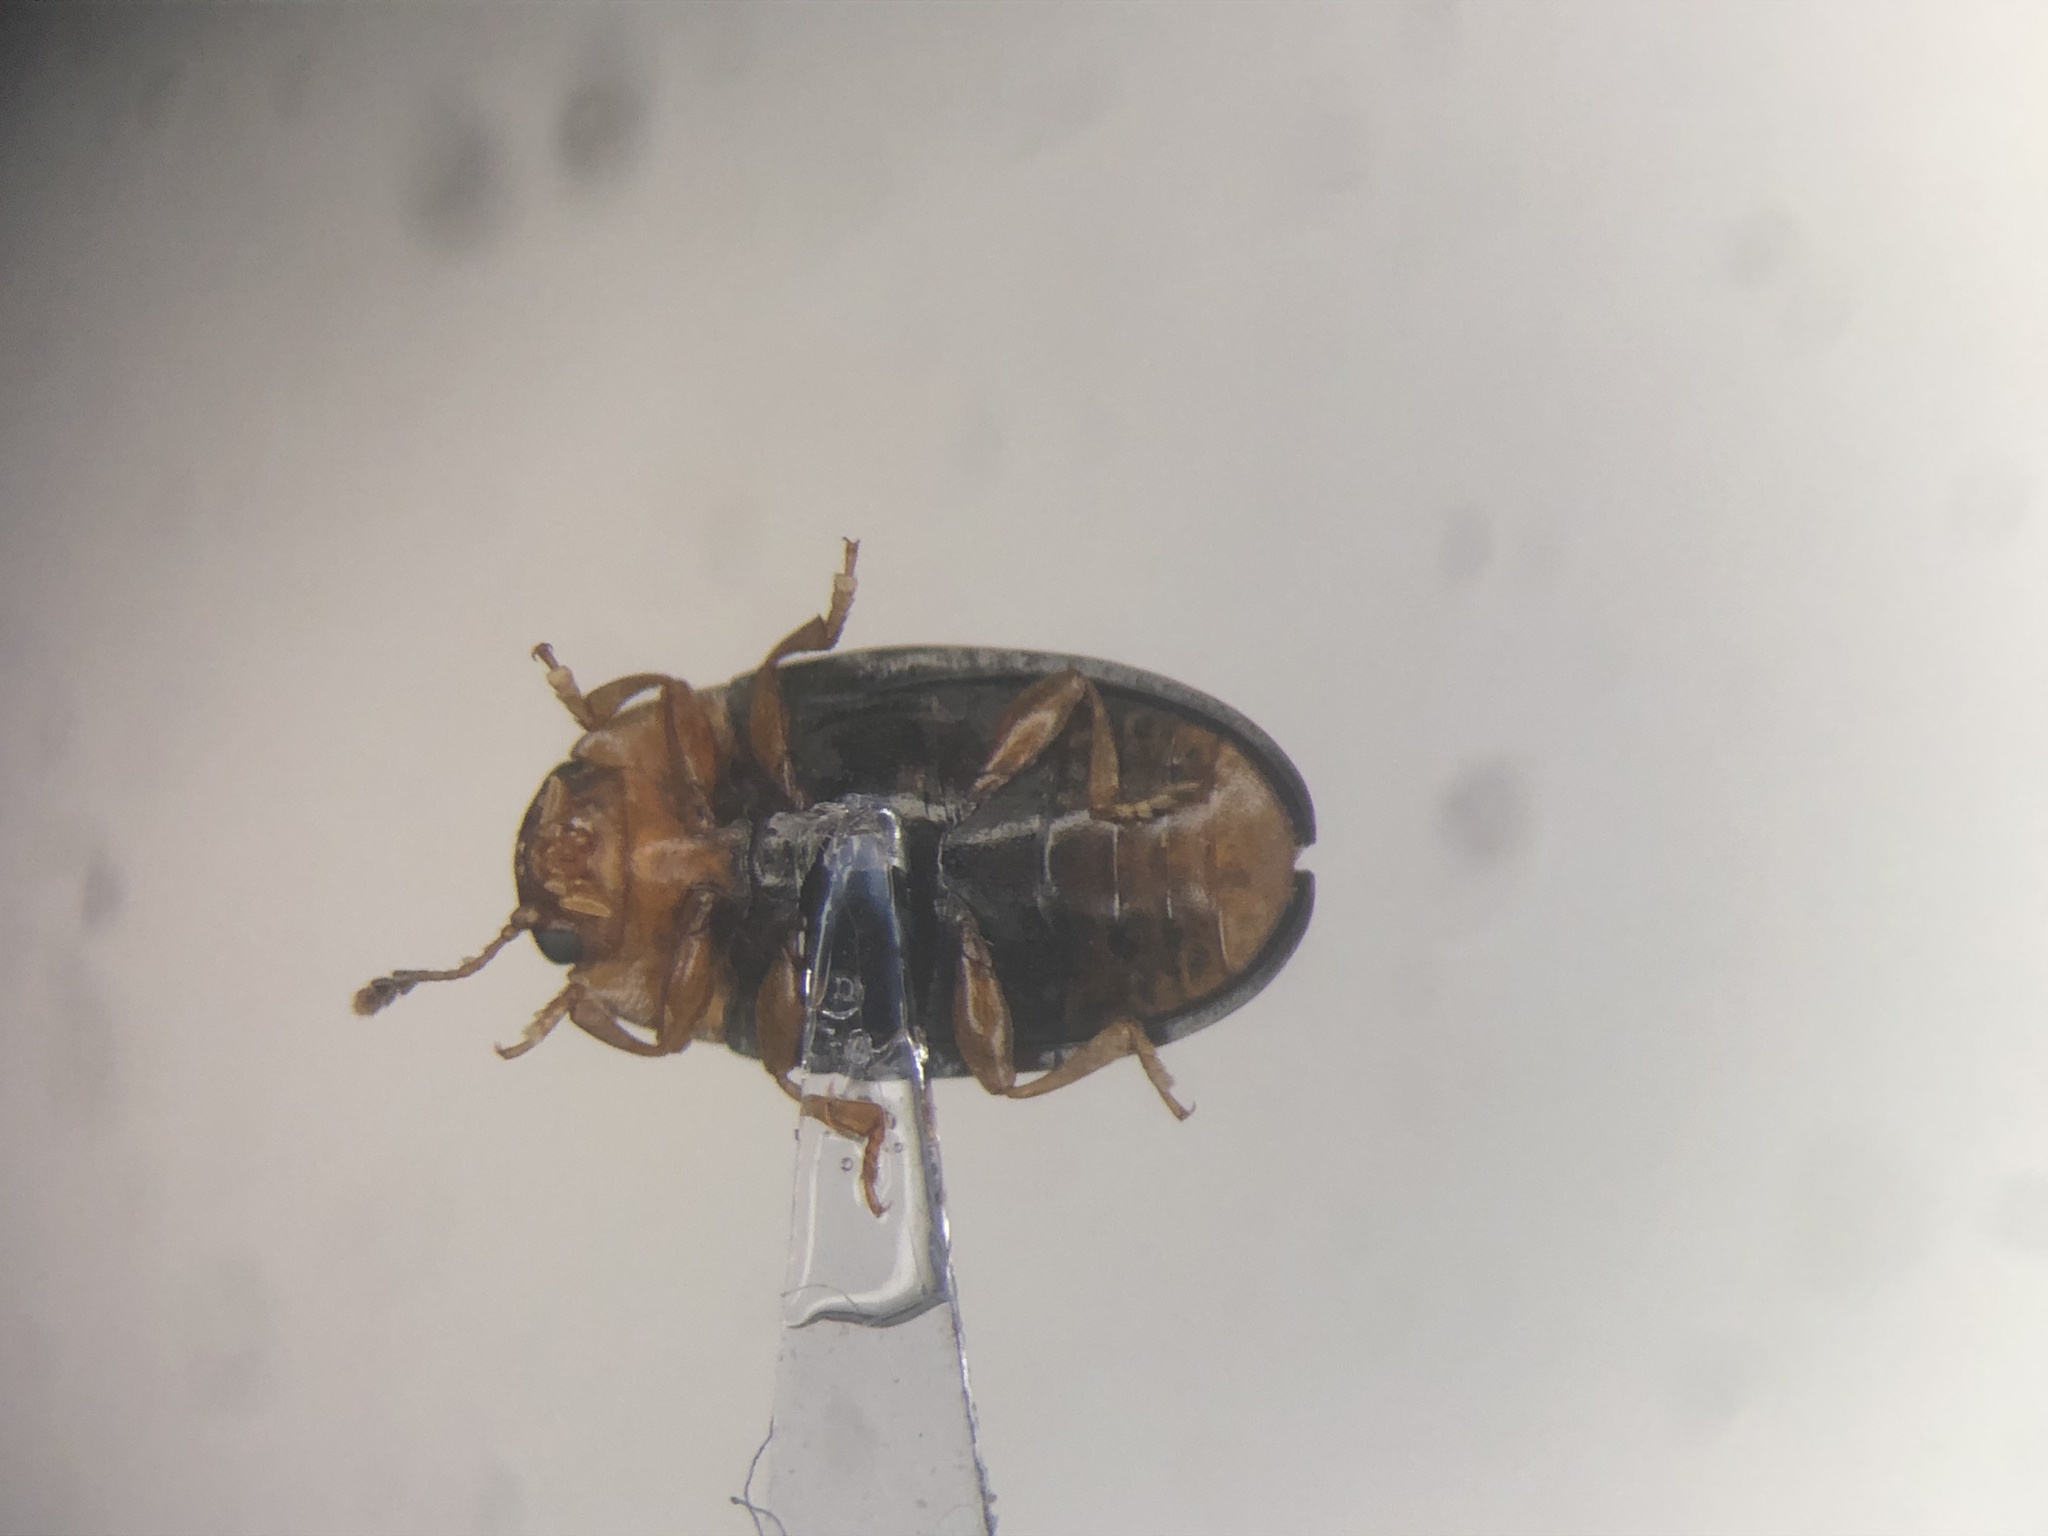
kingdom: Animalia
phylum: Arthropoda
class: Insecta
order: Coleoptera
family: Erotylidae
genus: Triplax
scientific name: Triplax dissimulator
